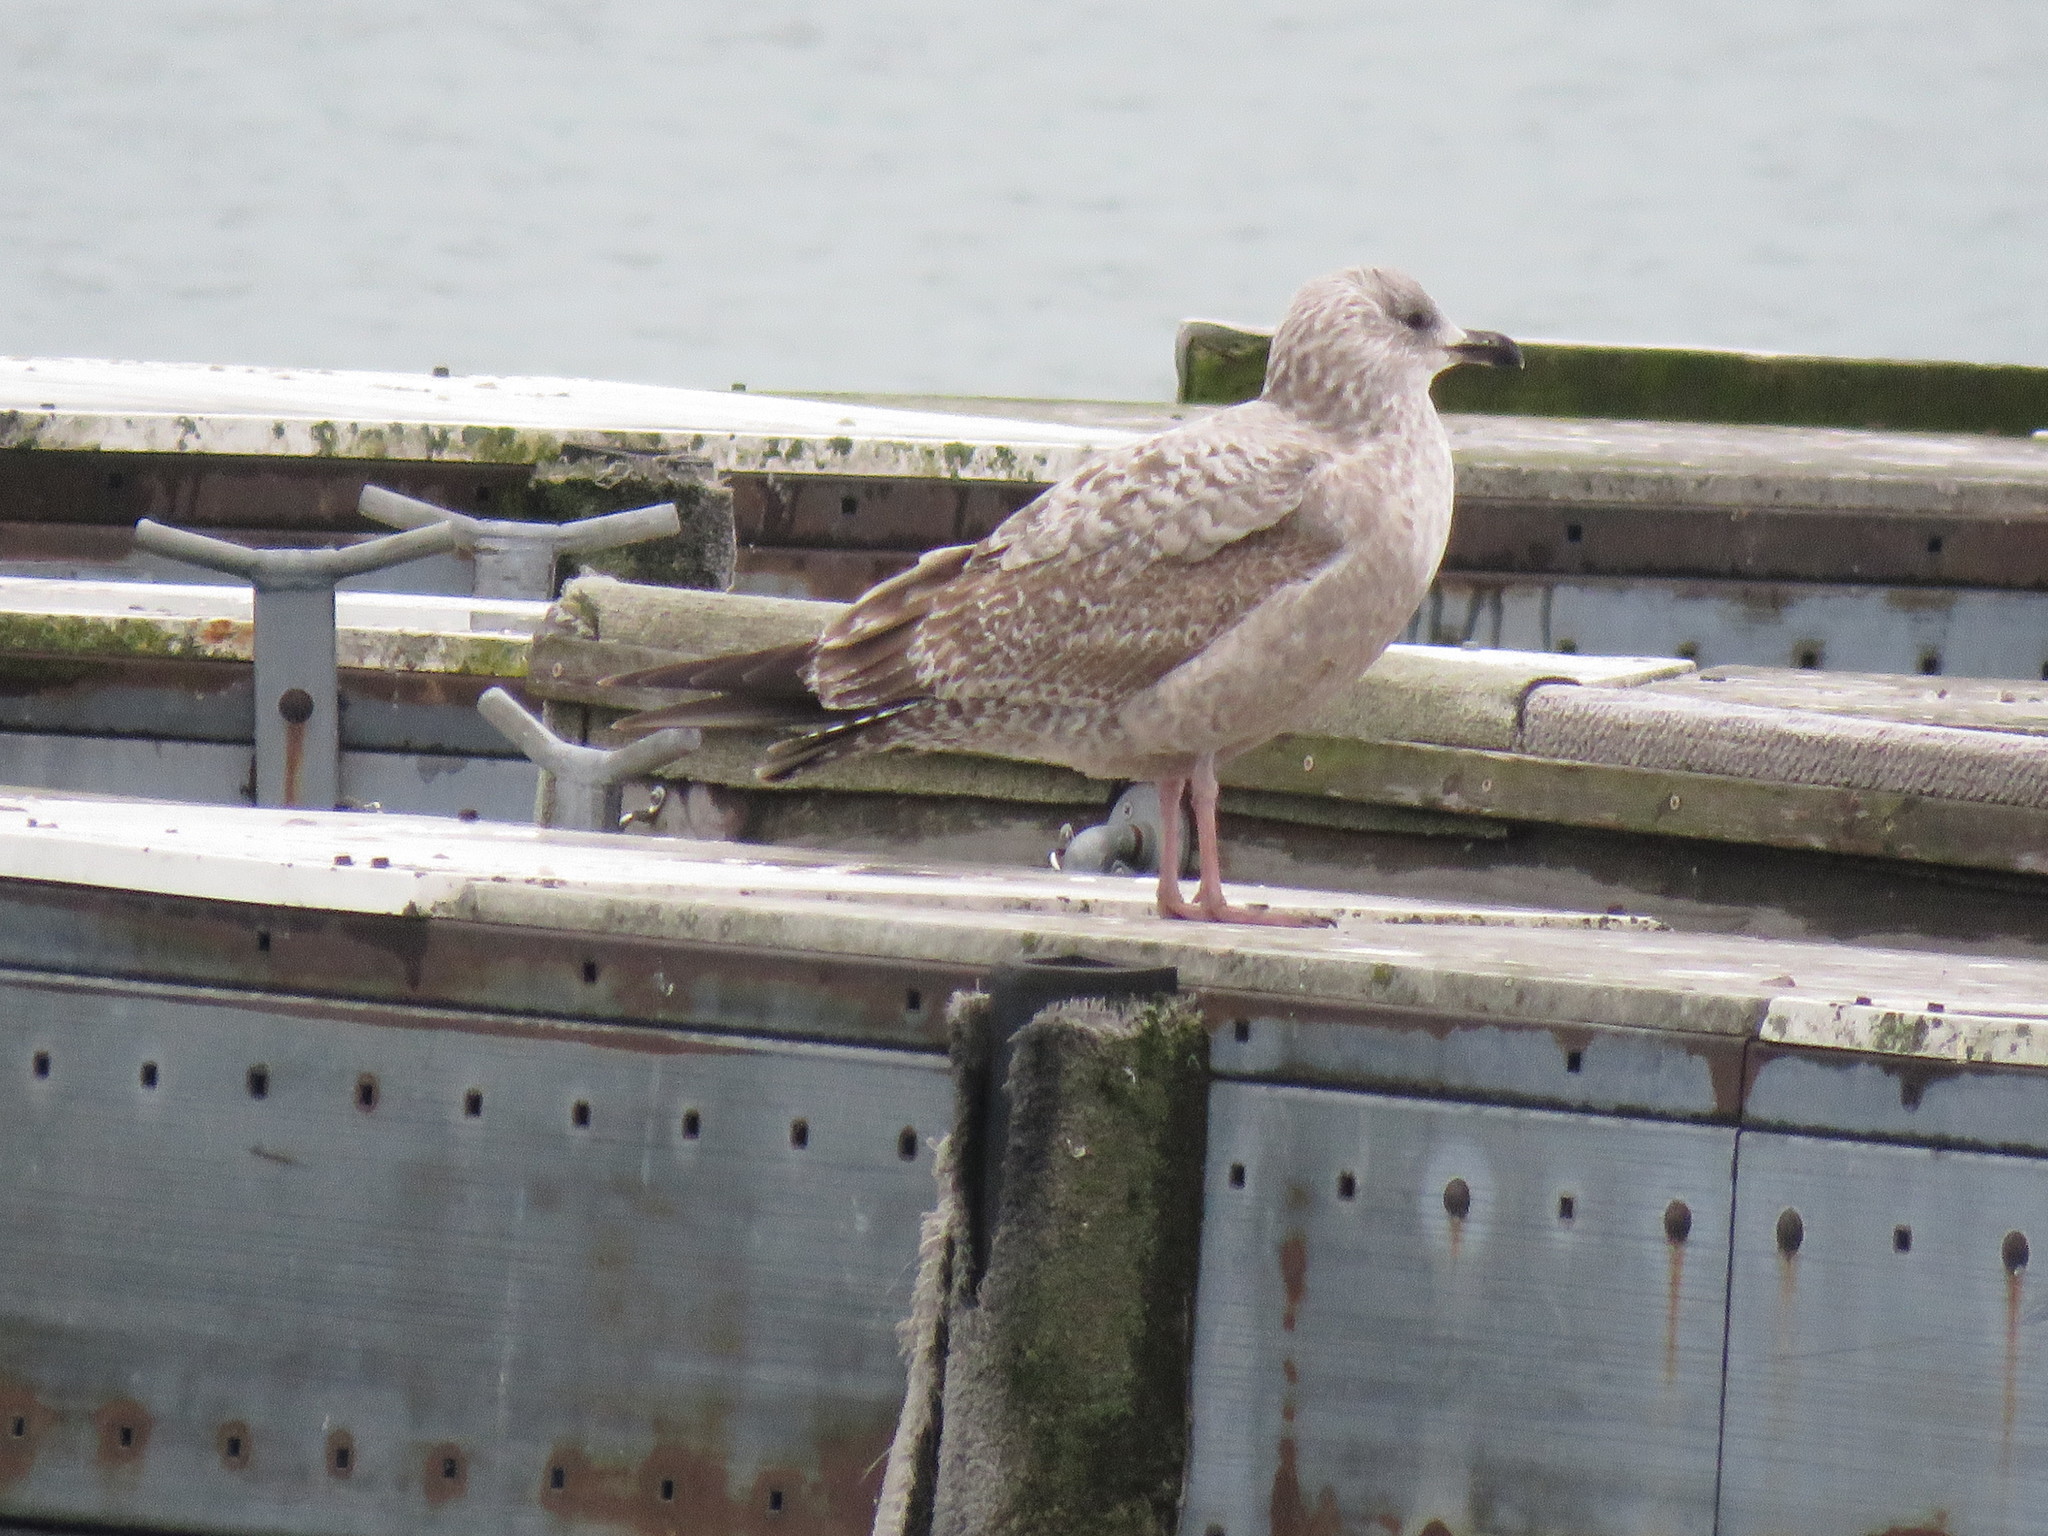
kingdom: Animalia
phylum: Chordata
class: Aves
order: Charadriiformes
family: Laridae
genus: Larus
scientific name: Larus argentatus
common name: Herring gull
